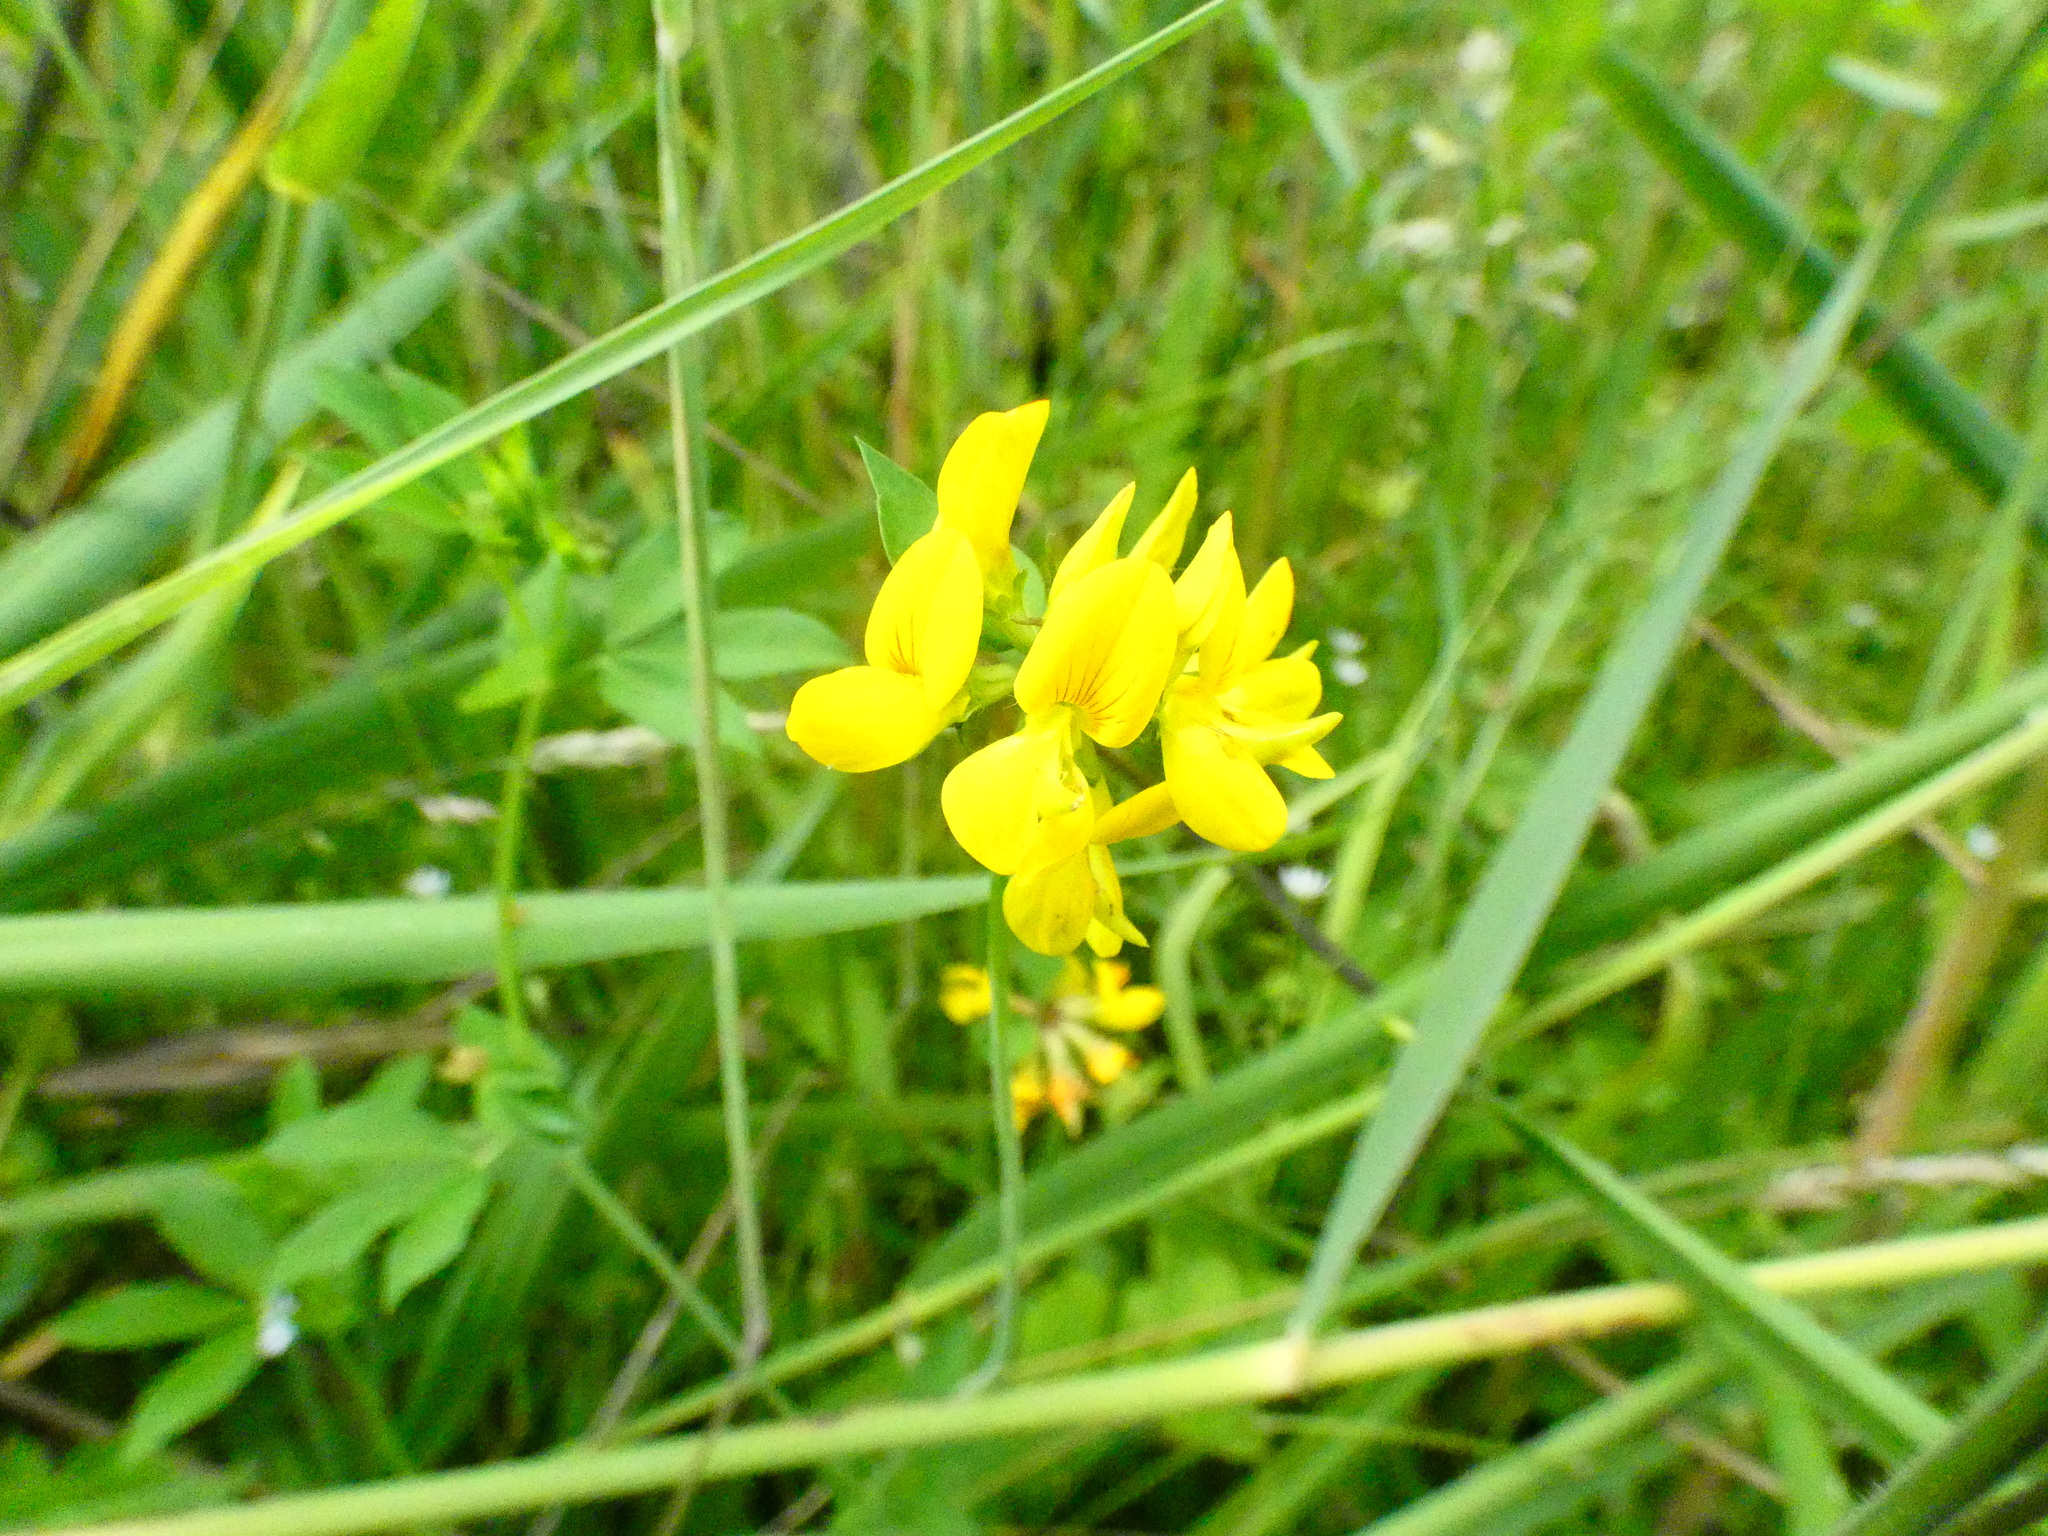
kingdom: Plantae
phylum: Tracheophyta
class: Magnoliopsida
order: Fabales
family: Fabaceae
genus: Lotus
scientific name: Lotus pedunculatus
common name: Greater birdsfoot-trefoil
